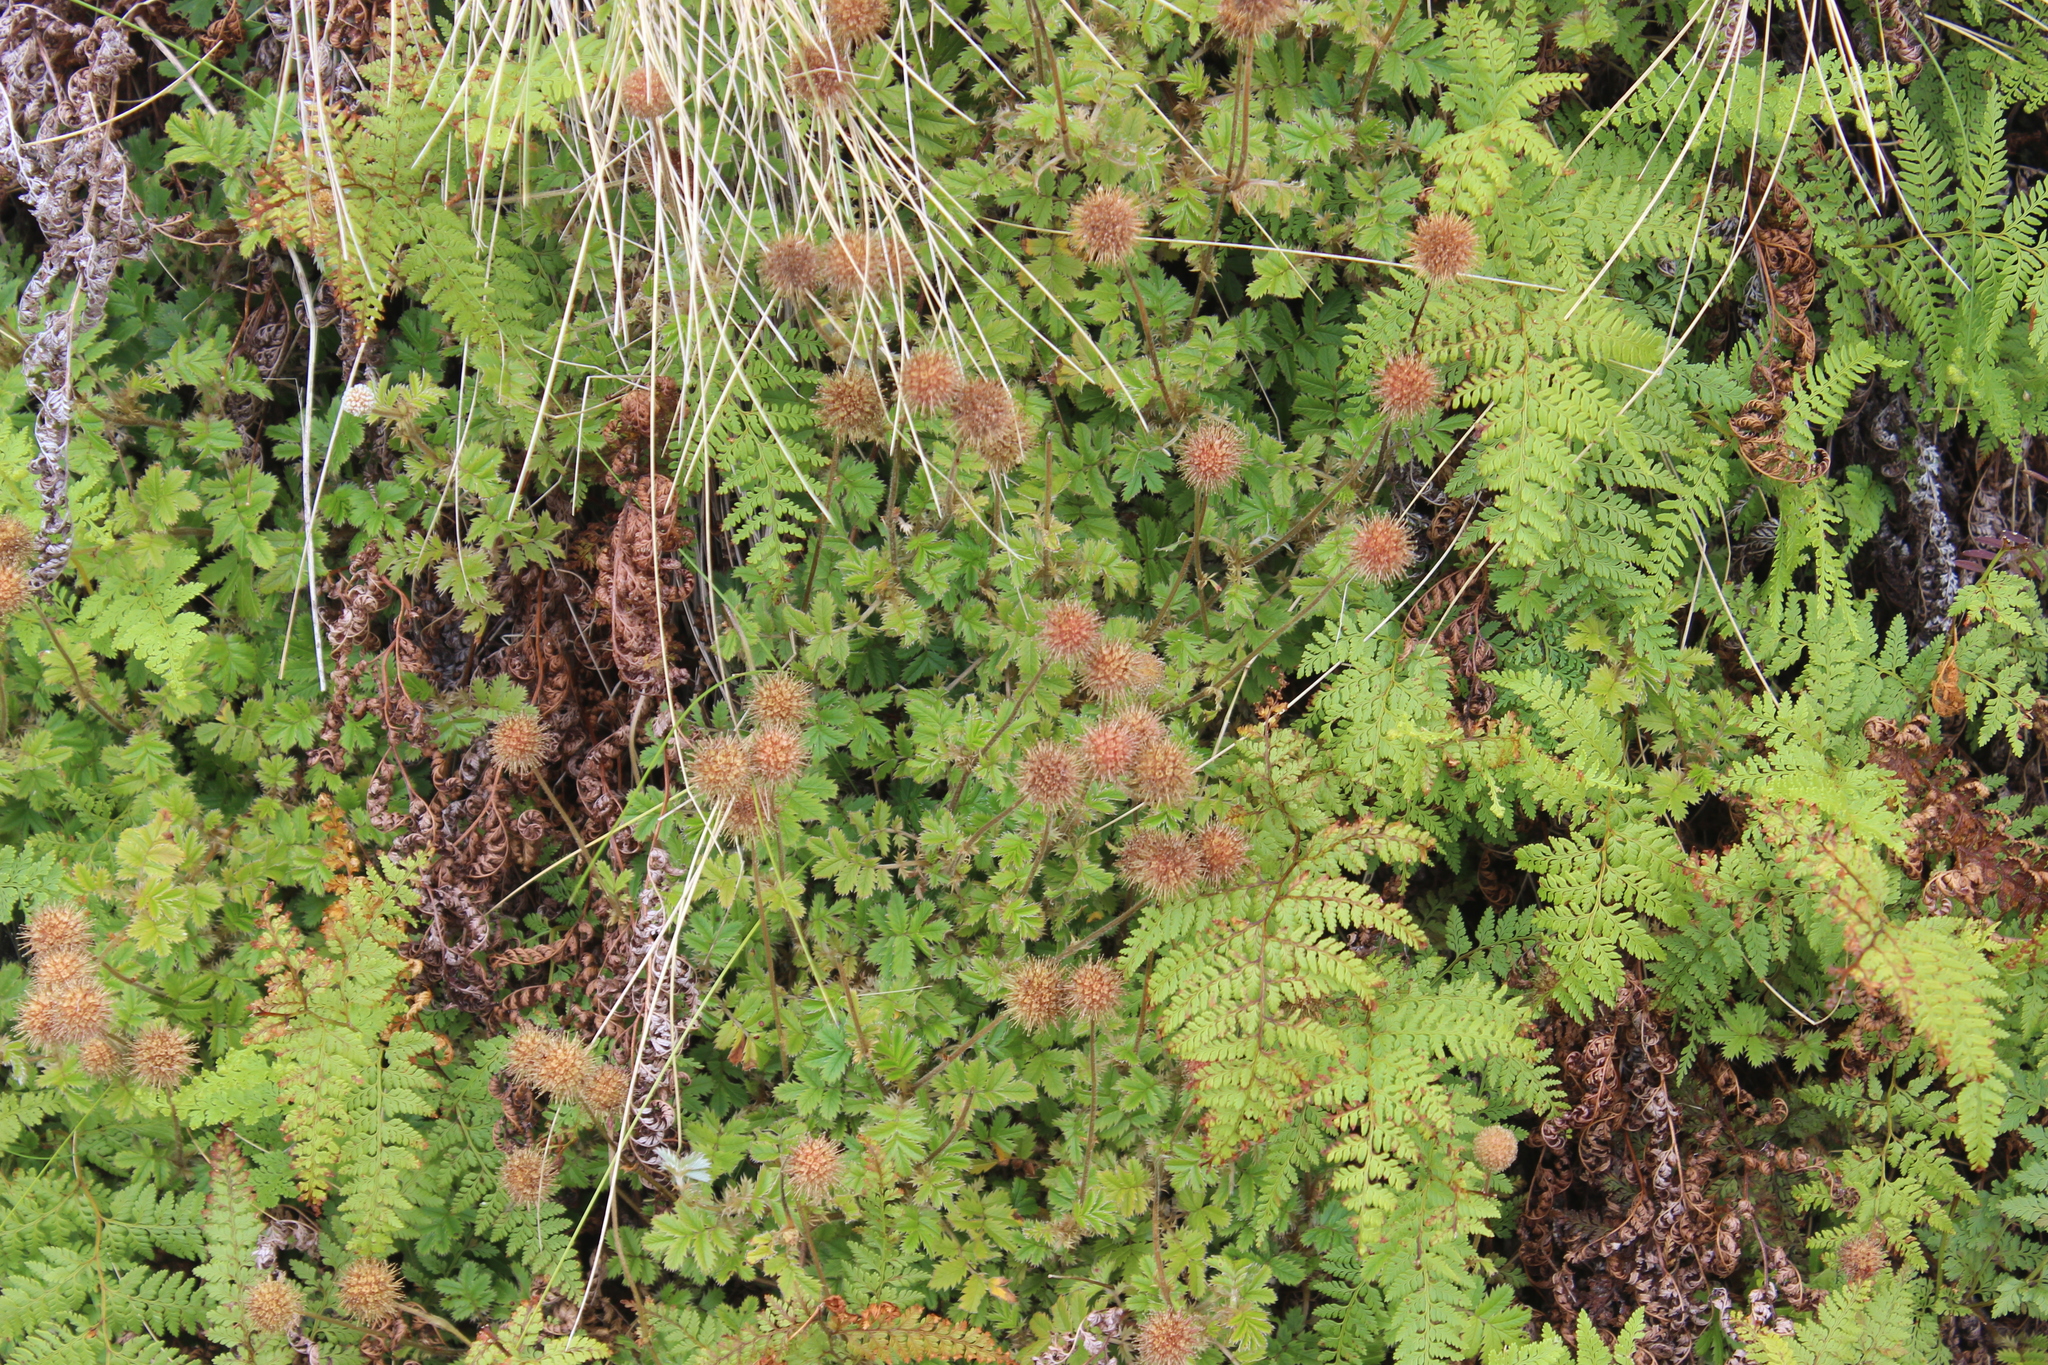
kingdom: Plantae
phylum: Tracheophyta
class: Magnoliopsida
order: Rosales
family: Rosaceae
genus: Acaena
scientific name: Acaena anserinifolia
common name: Bronze pirri-pirri-bur
